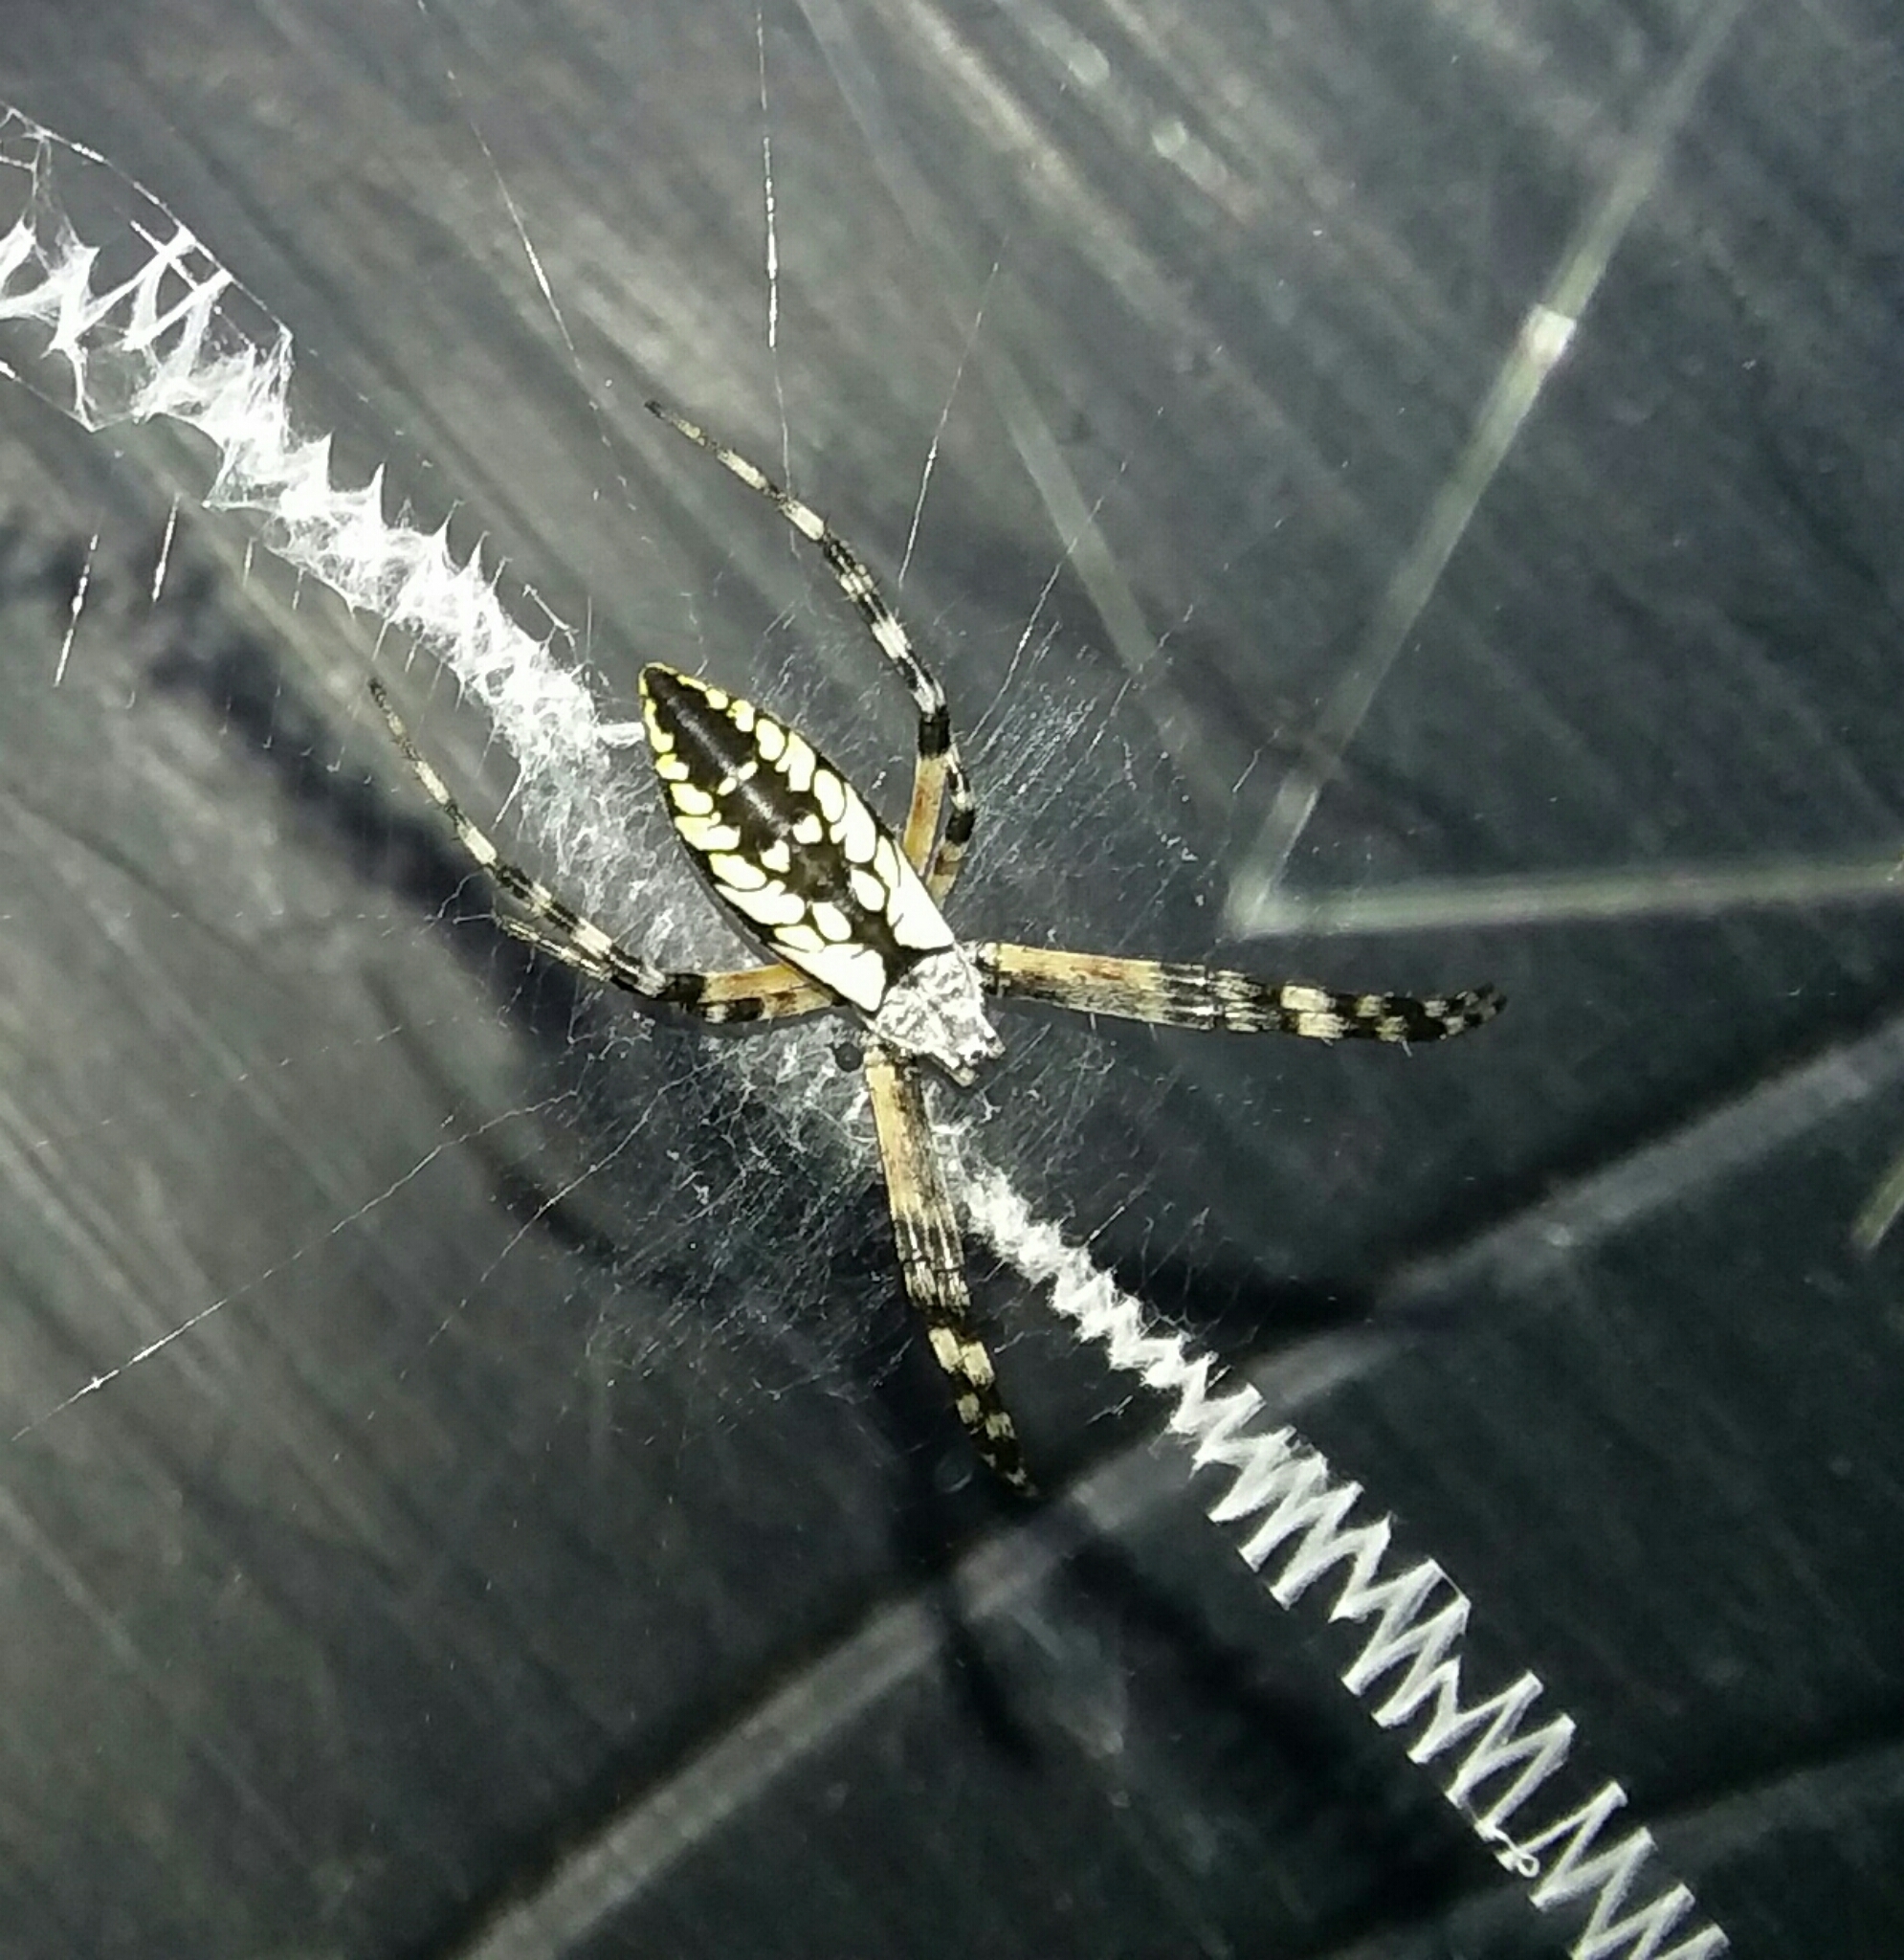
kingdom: Animalia
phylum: Arthropoda
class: Arachnida
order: Araneae
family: Araneidae
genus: Argiope
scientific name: Argiope aurantia
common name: Orb weavers
